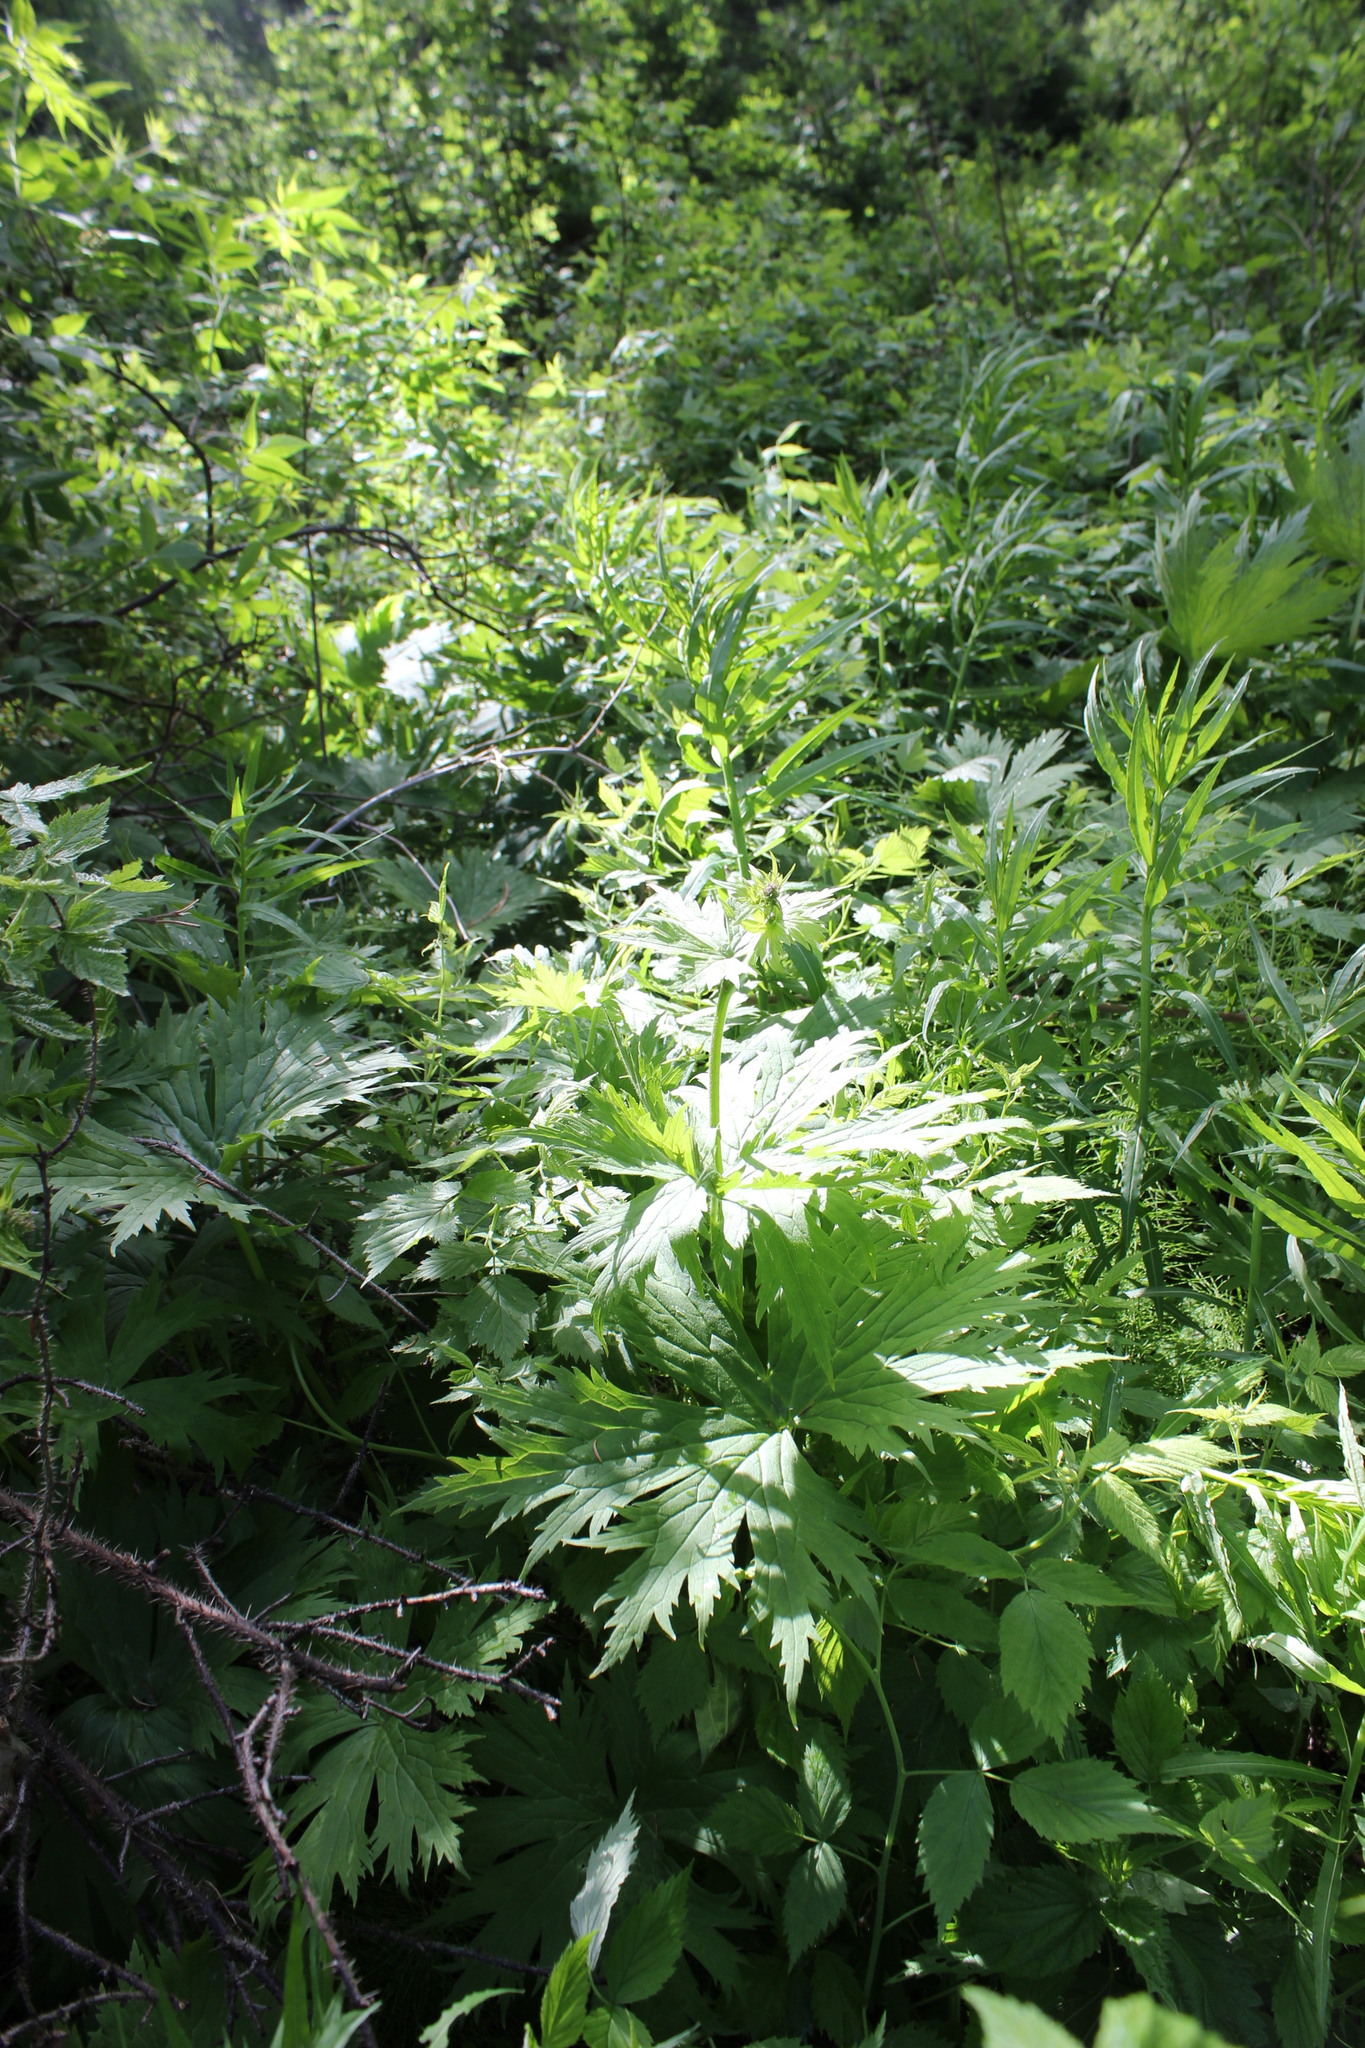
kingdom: Plantae
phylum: Tracheophyta
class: Magnoliopsida
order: Ranunculales
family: Ranunculaceae
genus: Aconitum
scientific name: Aconitum septentrionale
